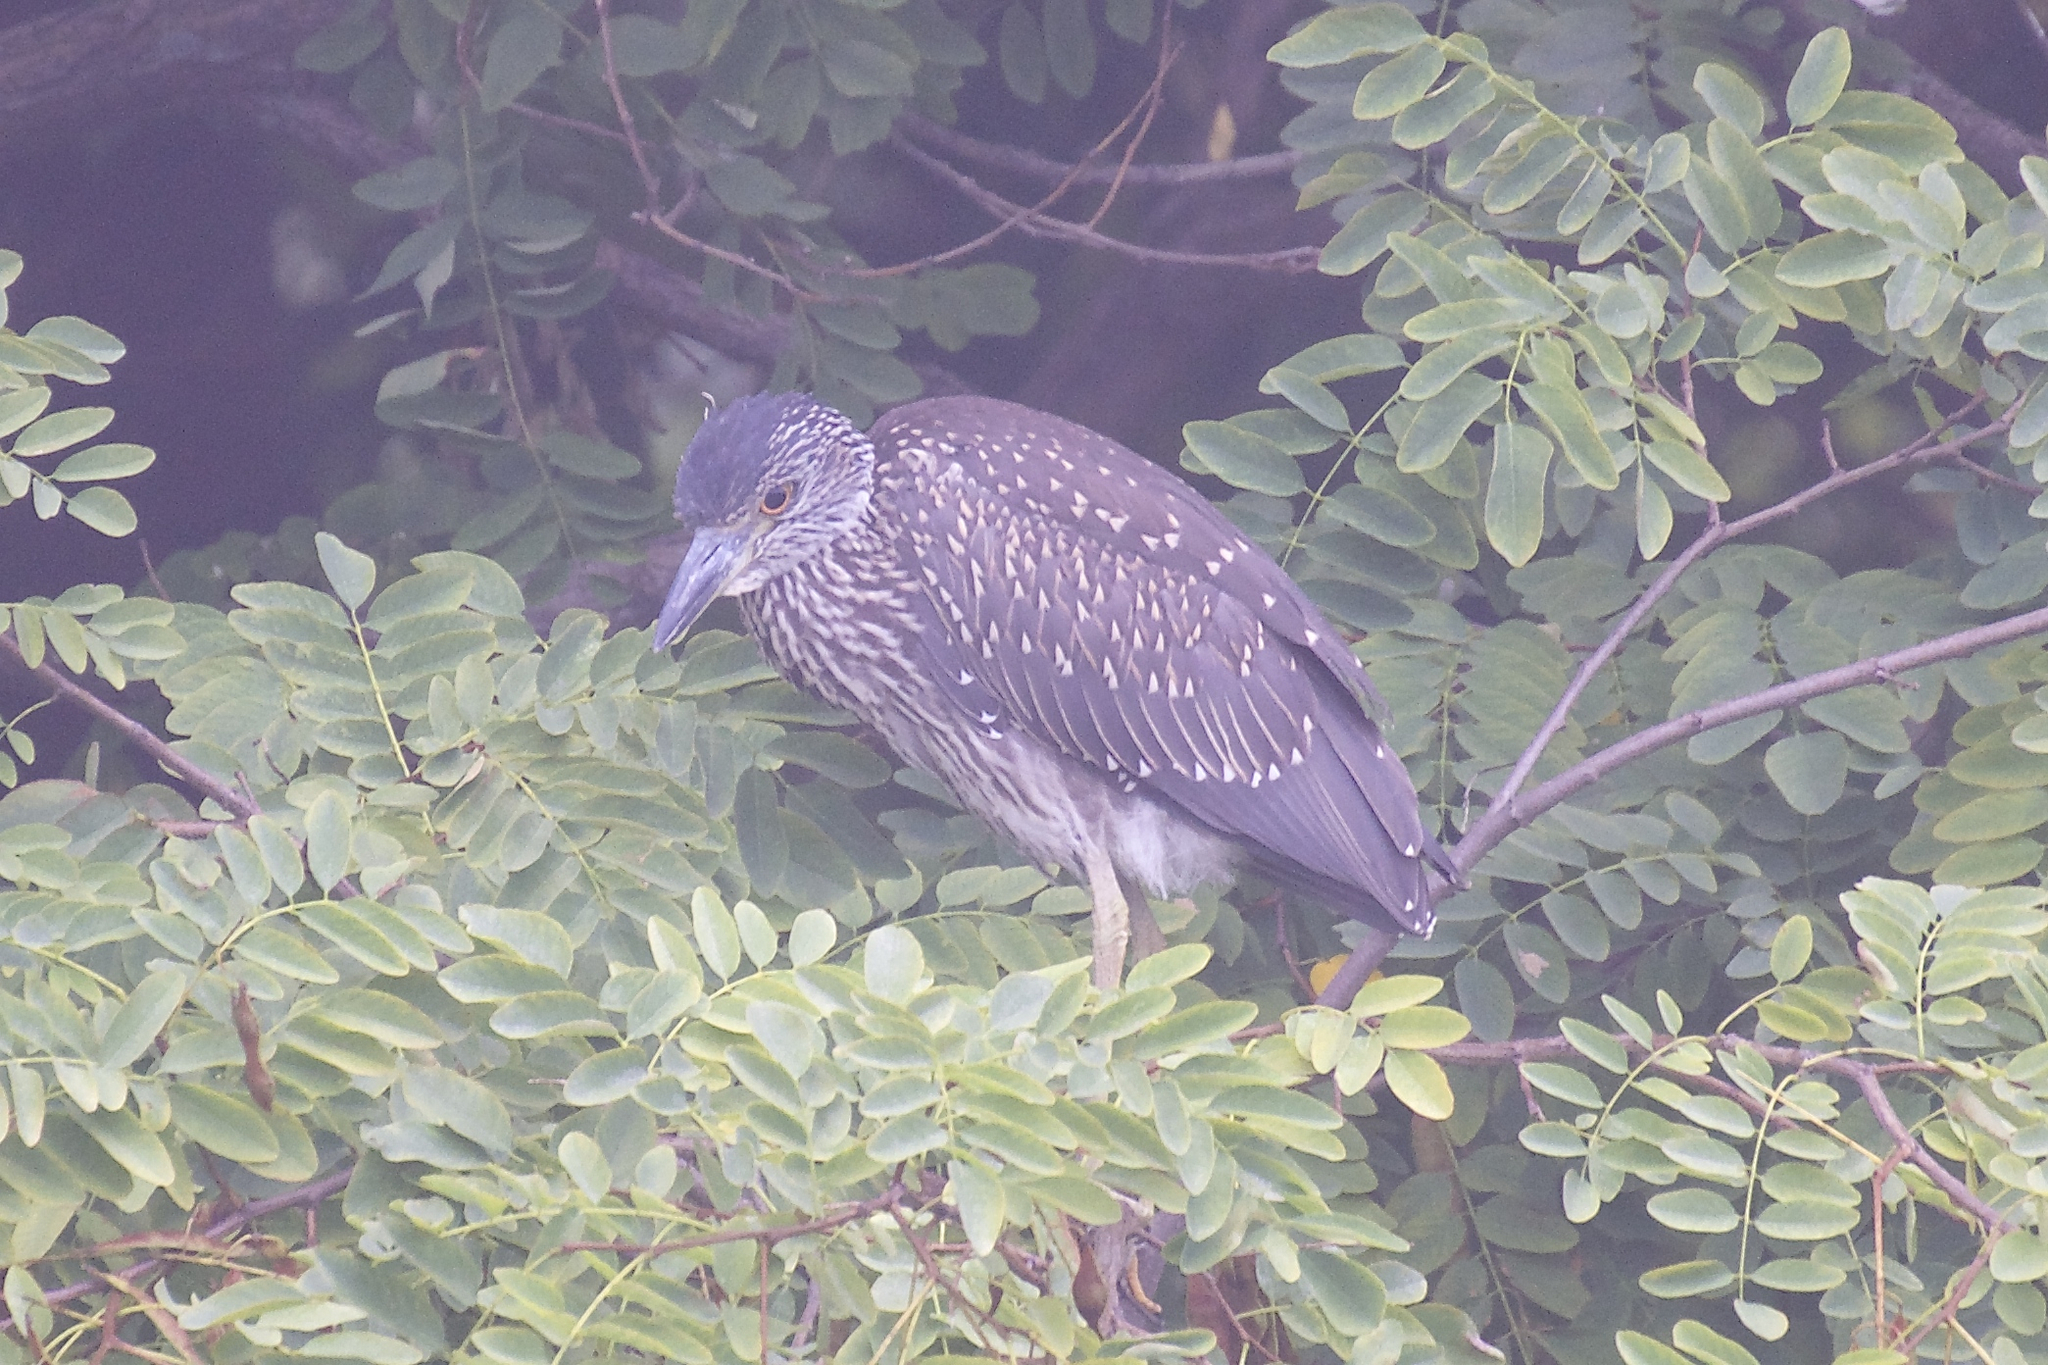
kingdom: Animalia
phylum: Chordata
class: Aves
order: Pelecaniformes
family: Ardeidae
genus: Nyctanassa
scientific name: Nyctanassa violacea
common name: Yellow-crowned night heron
